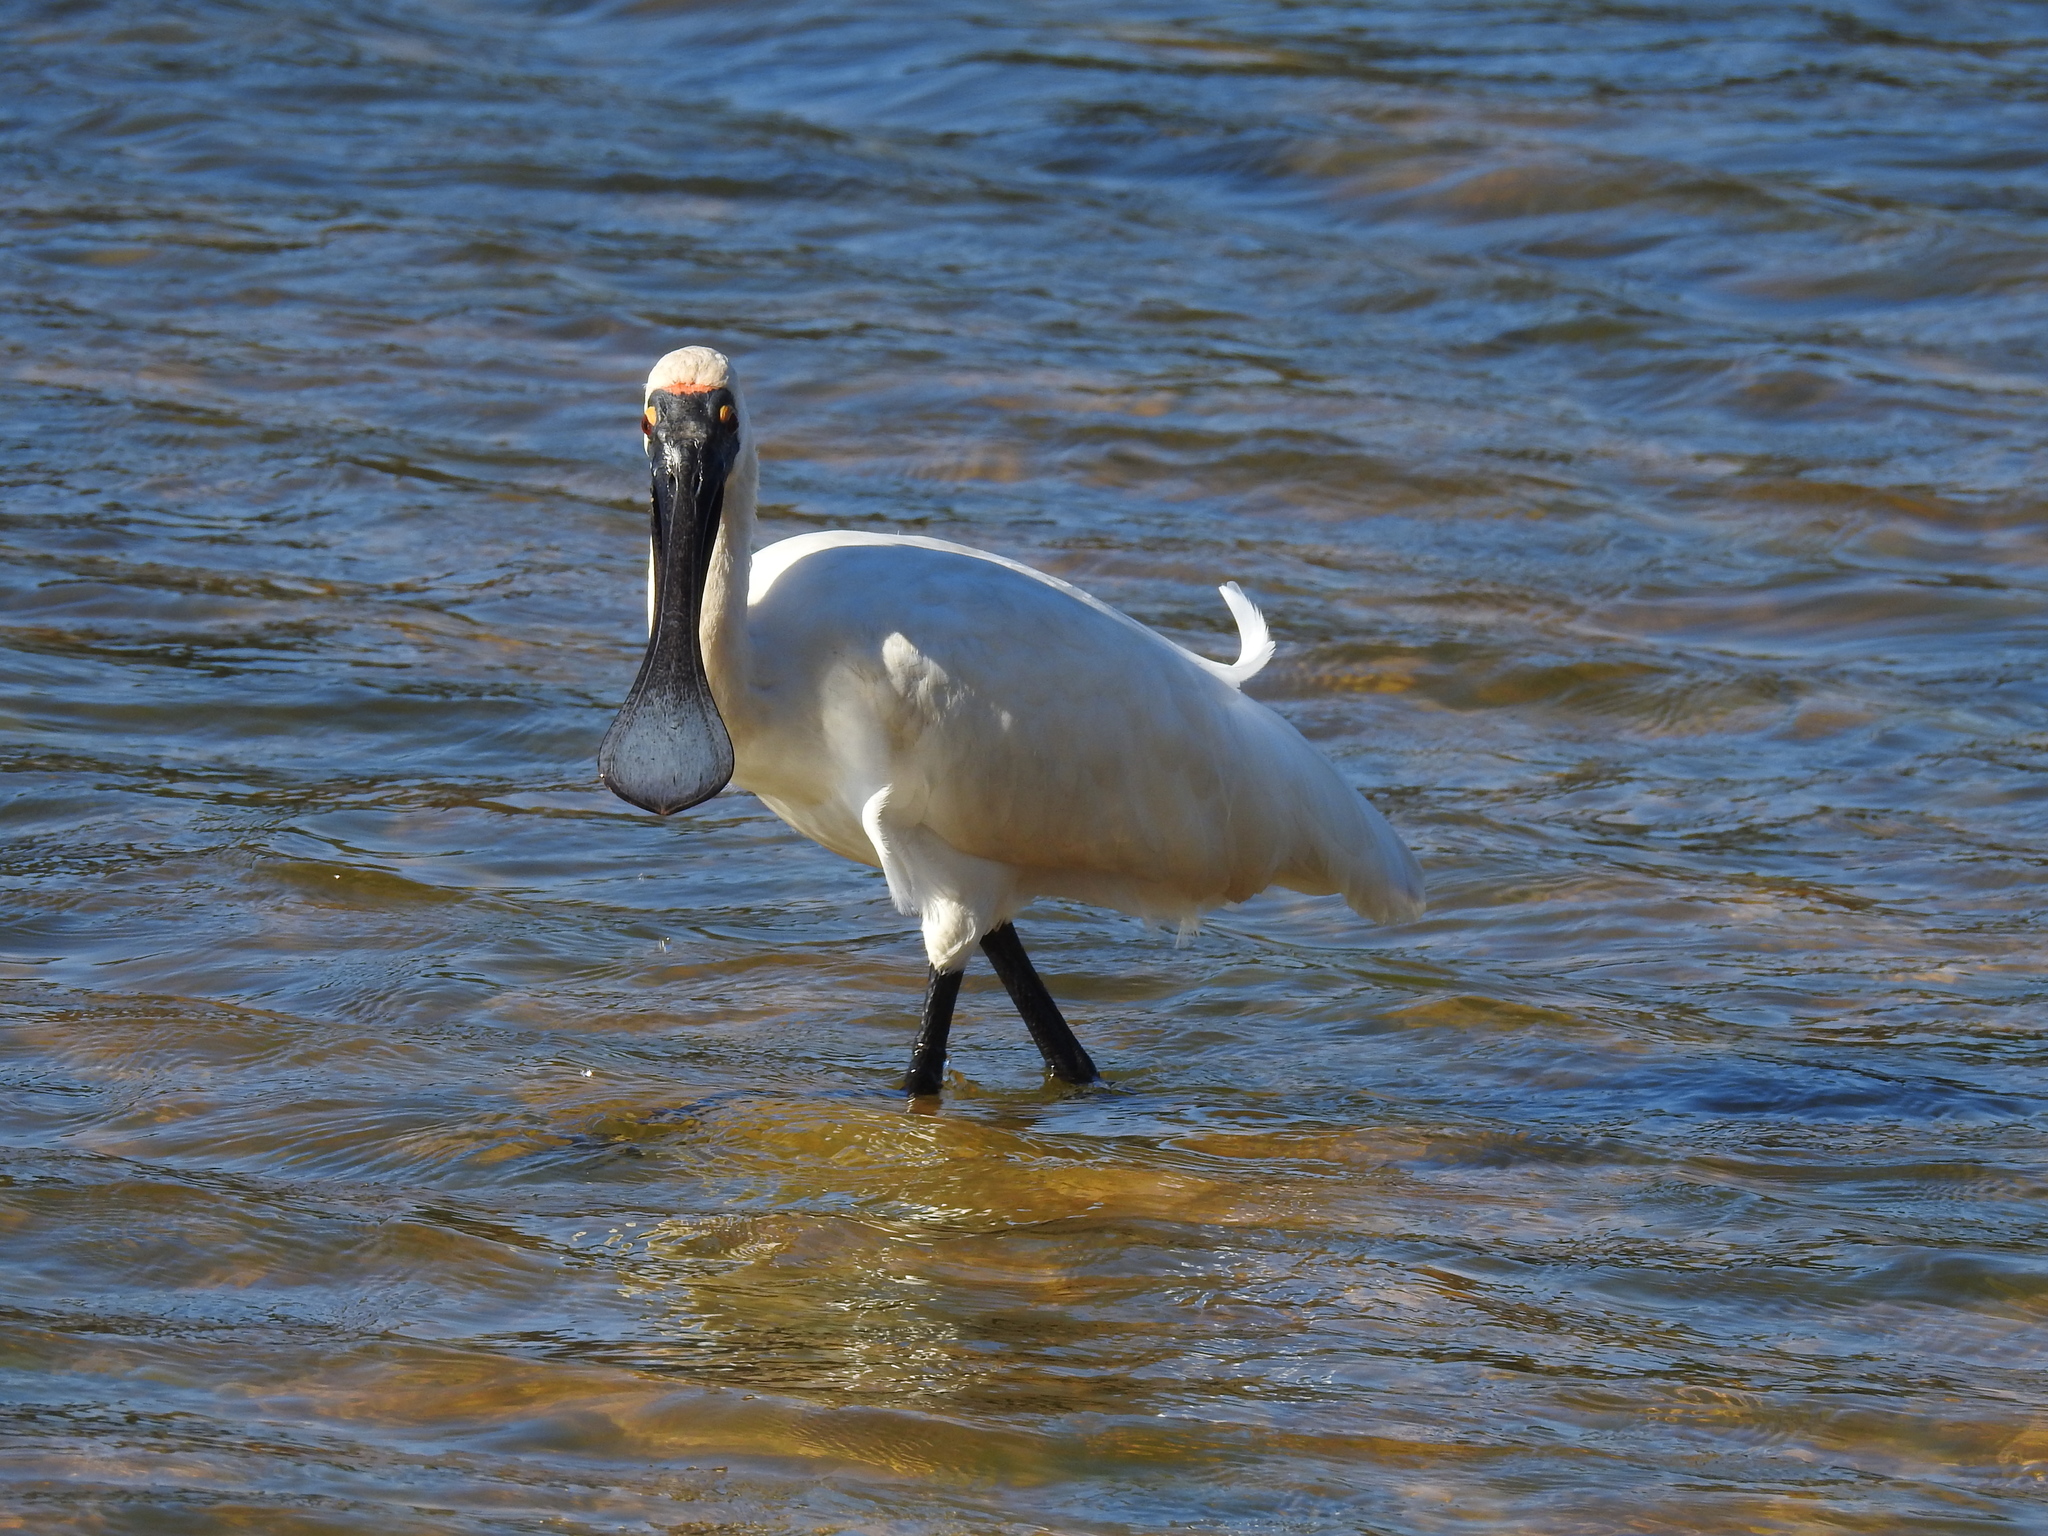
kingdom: Animalia
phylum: Chordata
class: Aves
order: Pelecaniformes
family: Threskiornithidae
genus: Platalea
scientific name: Platalea regia
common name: Royal spoonbill
